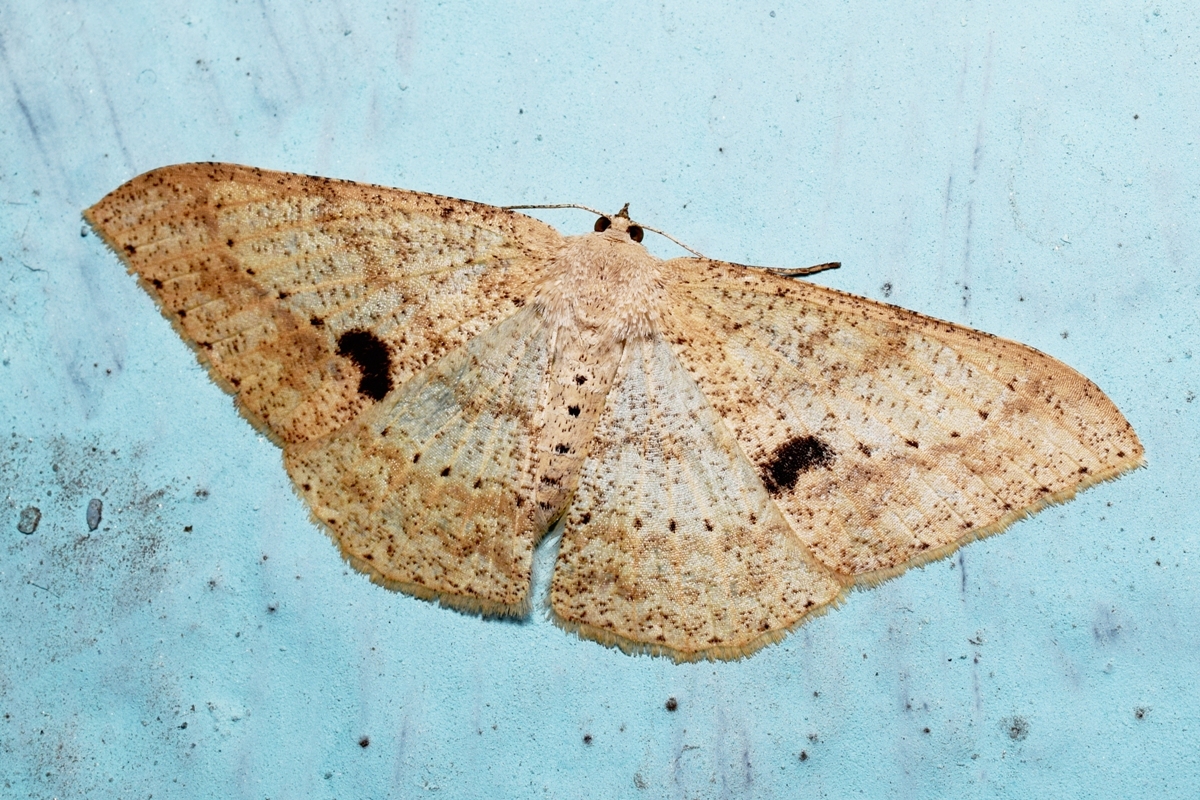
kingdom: Animalia
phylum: Arthropoda
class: Insecta
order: Lepidoptera
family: Geometridae
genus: Luxiaria
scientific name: Luxiaria mitorrhaphes
